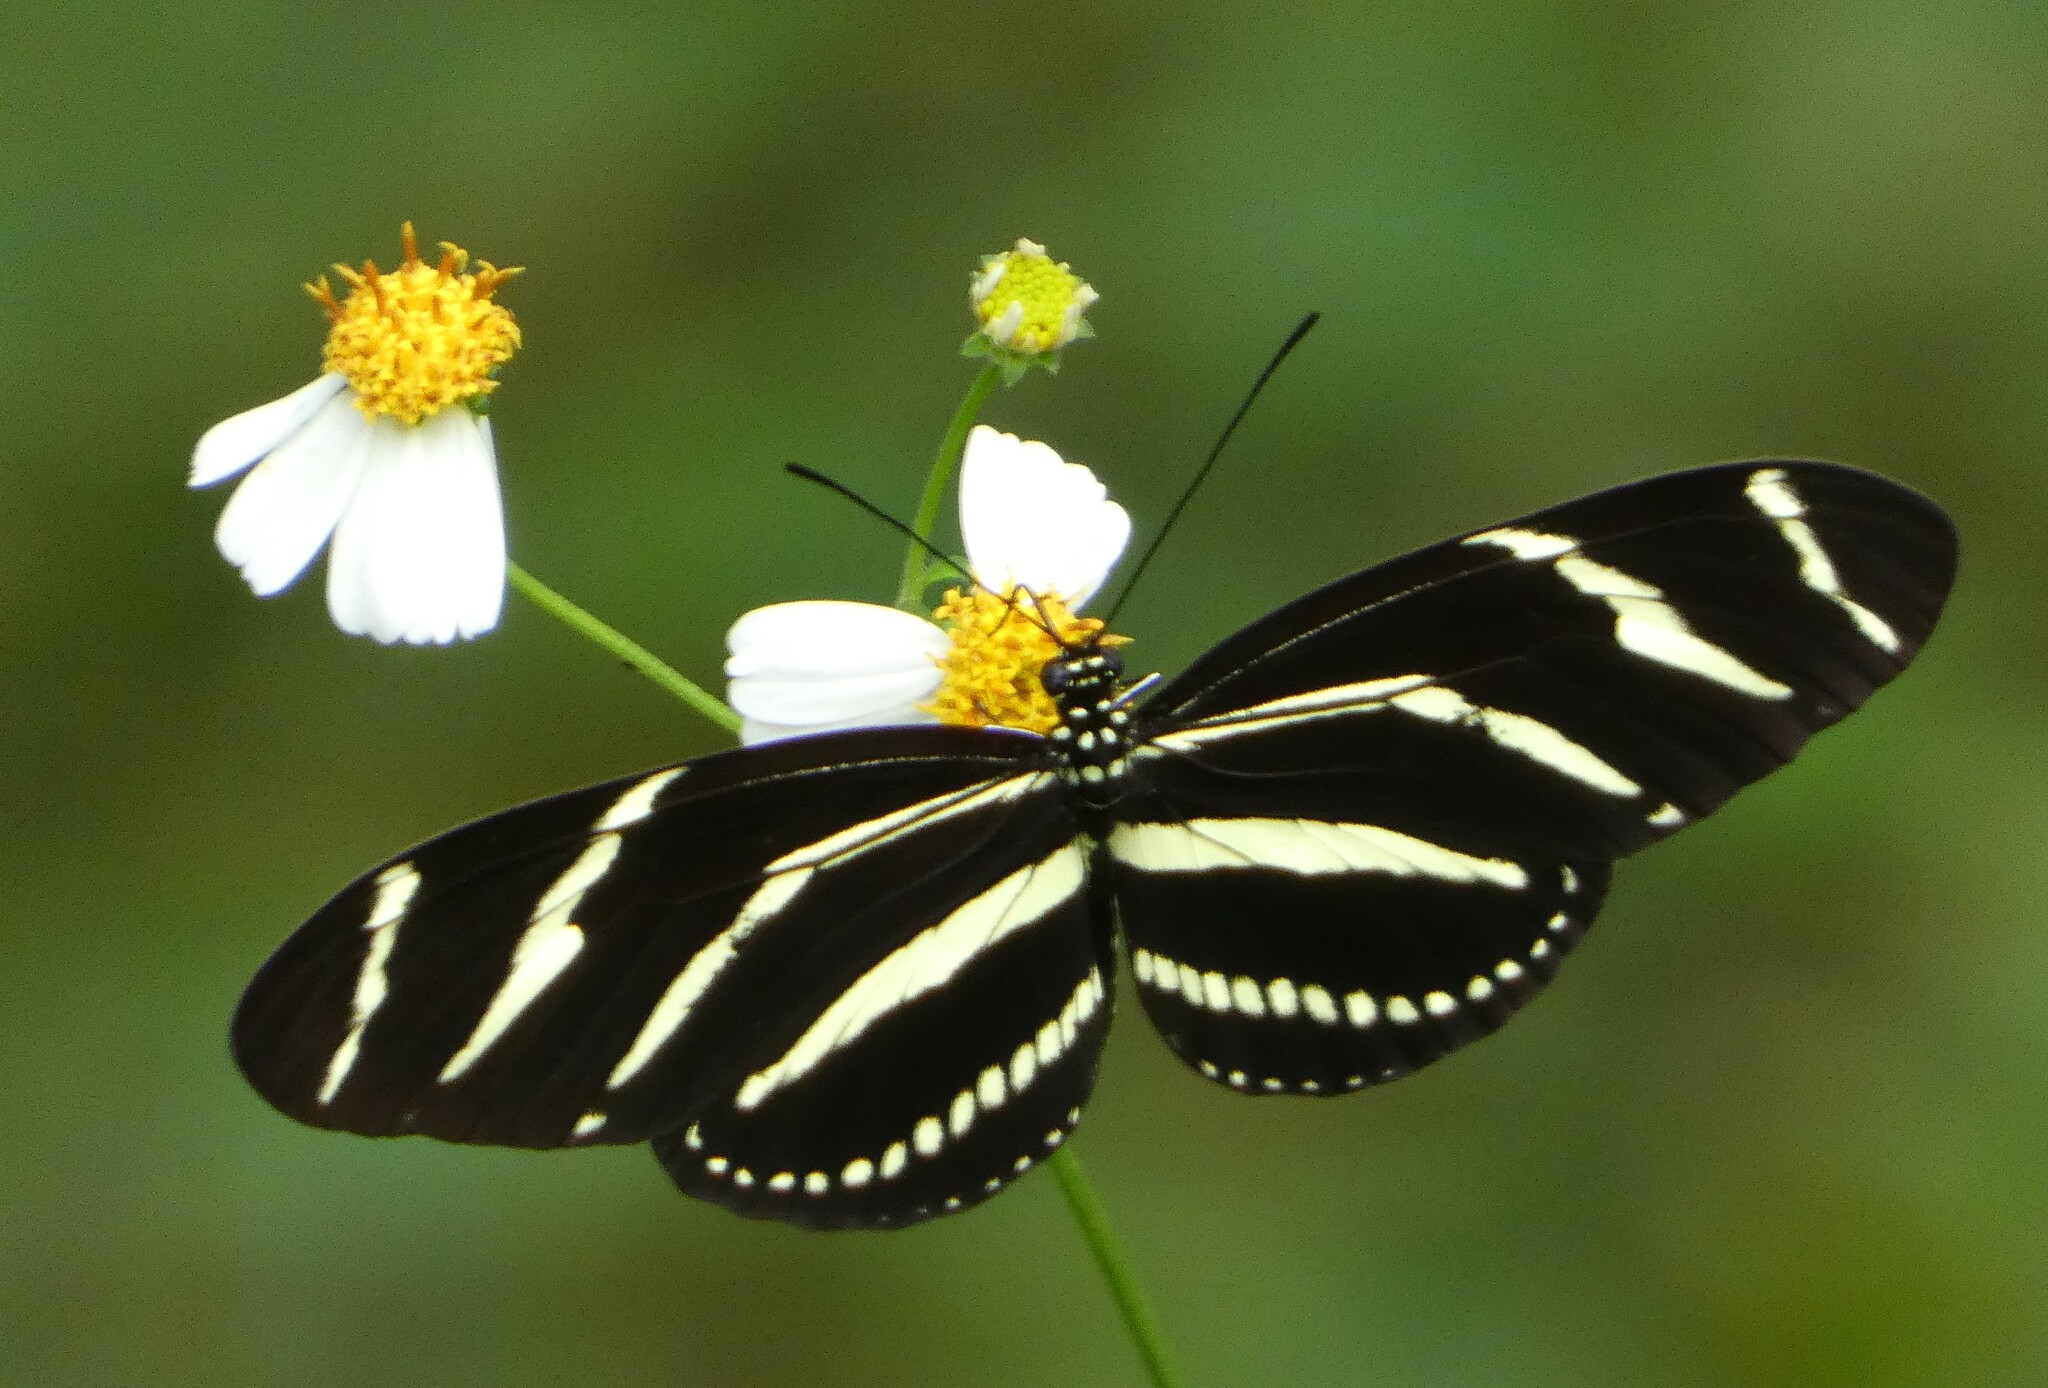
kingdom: Animalia
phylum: Arthropoda
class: Insecta
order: Lepidoptera
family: Nymphalidae
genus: Heliconius
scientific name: Heliconius charithonia
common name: Zebra long wing
